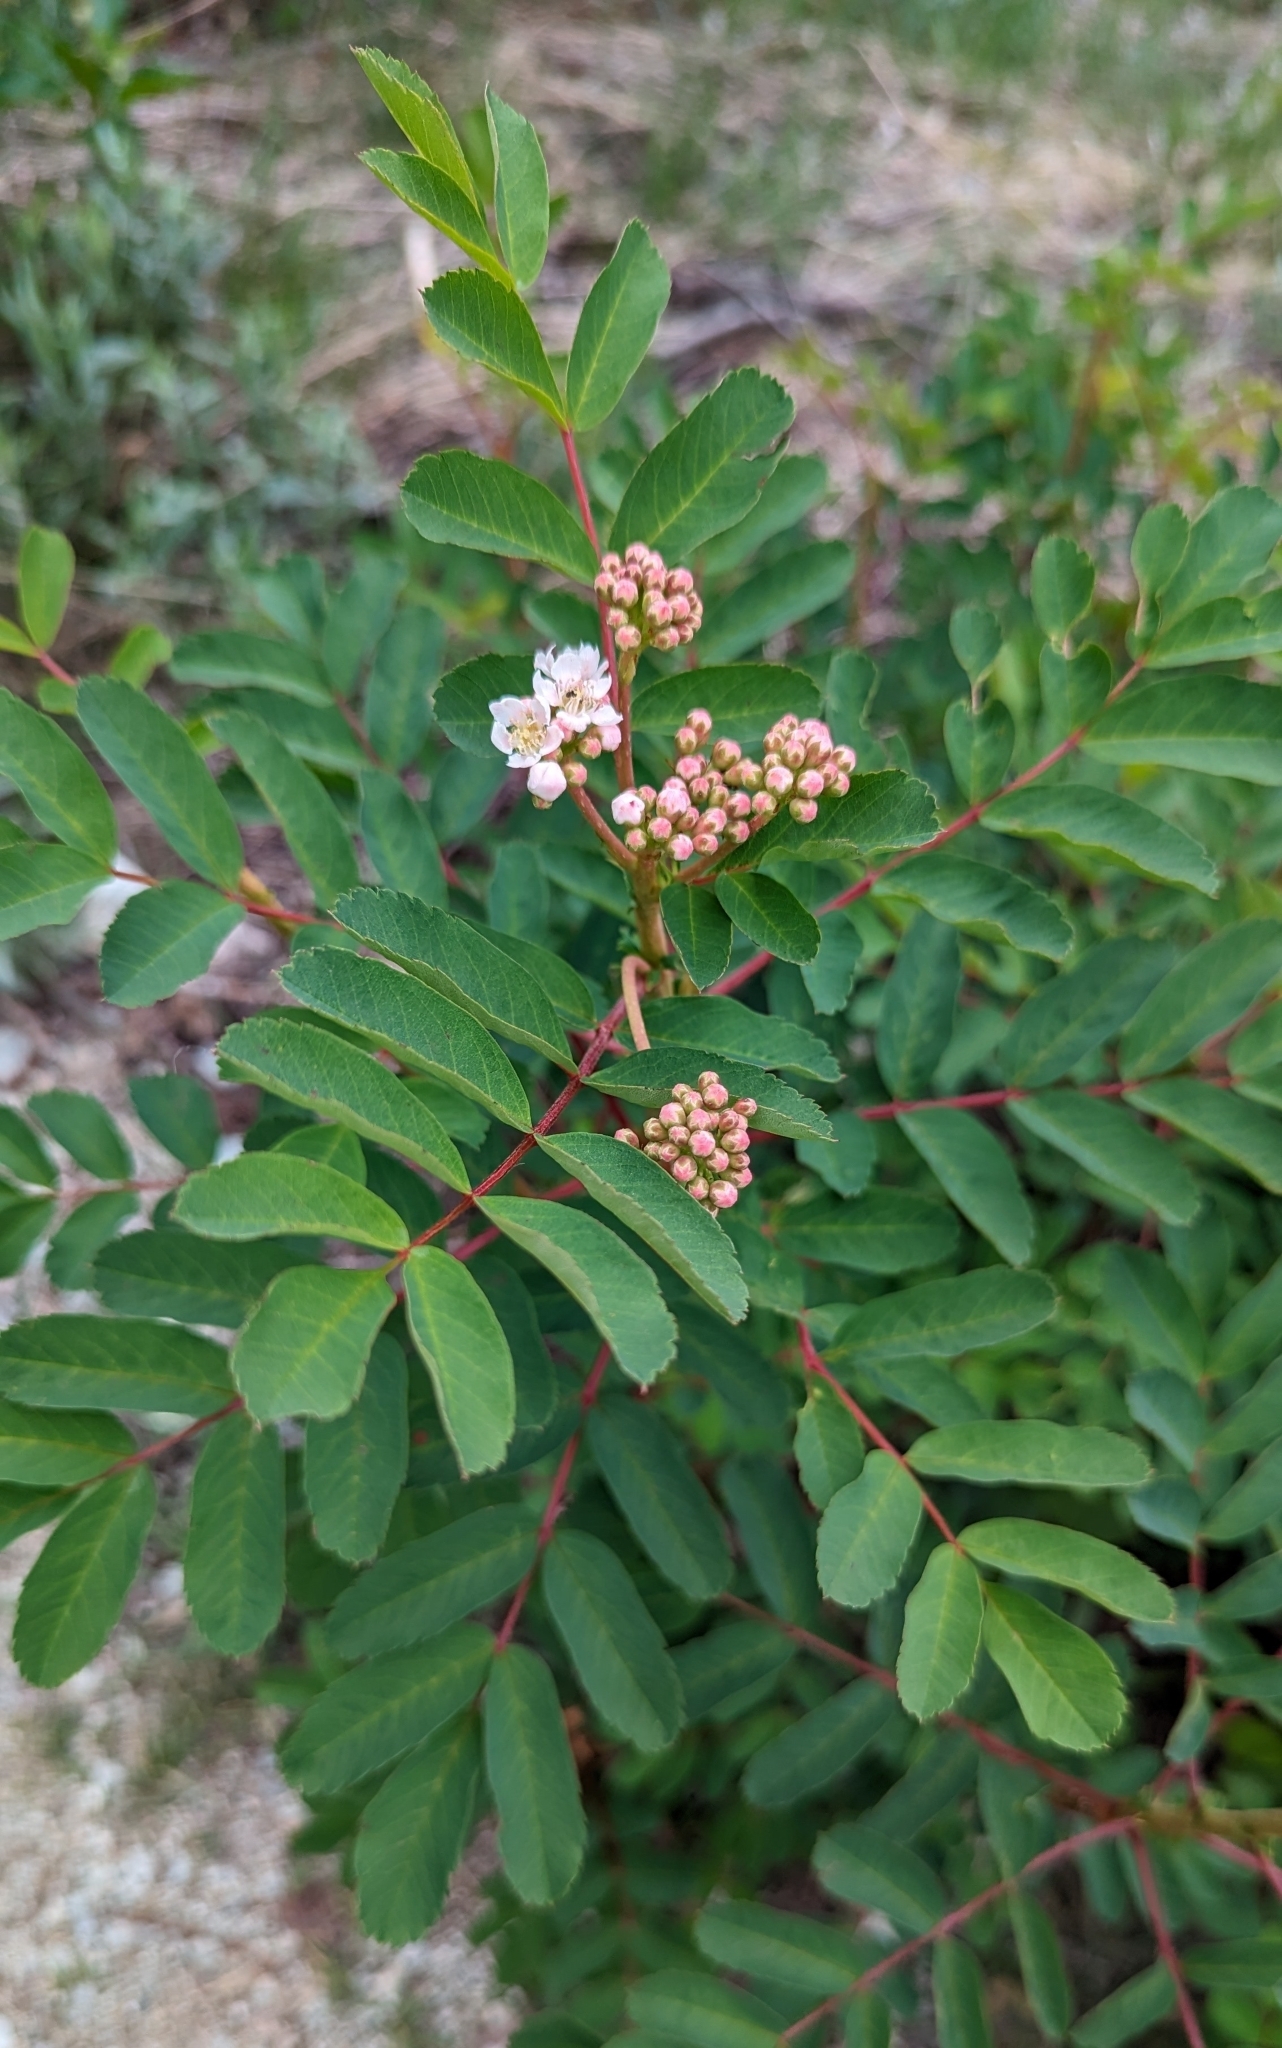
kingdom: Plantae
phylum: Tracheophyta
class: Magnoliopsida
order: Rosales
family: Rosaceae
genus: Sorbus
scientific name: Sorbus sitchensis
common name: Sitka mountain-ash
